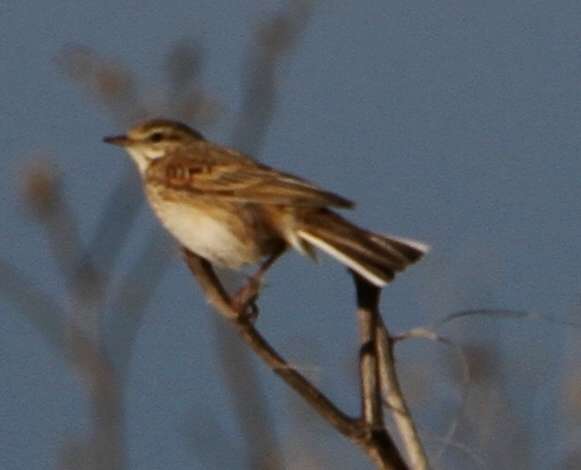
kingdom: Animalia
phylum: Chordata
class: Aves
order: Passeriformes
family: Locustellidae
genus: Megalurus
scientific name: Megalurus mathewsi
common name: Rufous songlark
